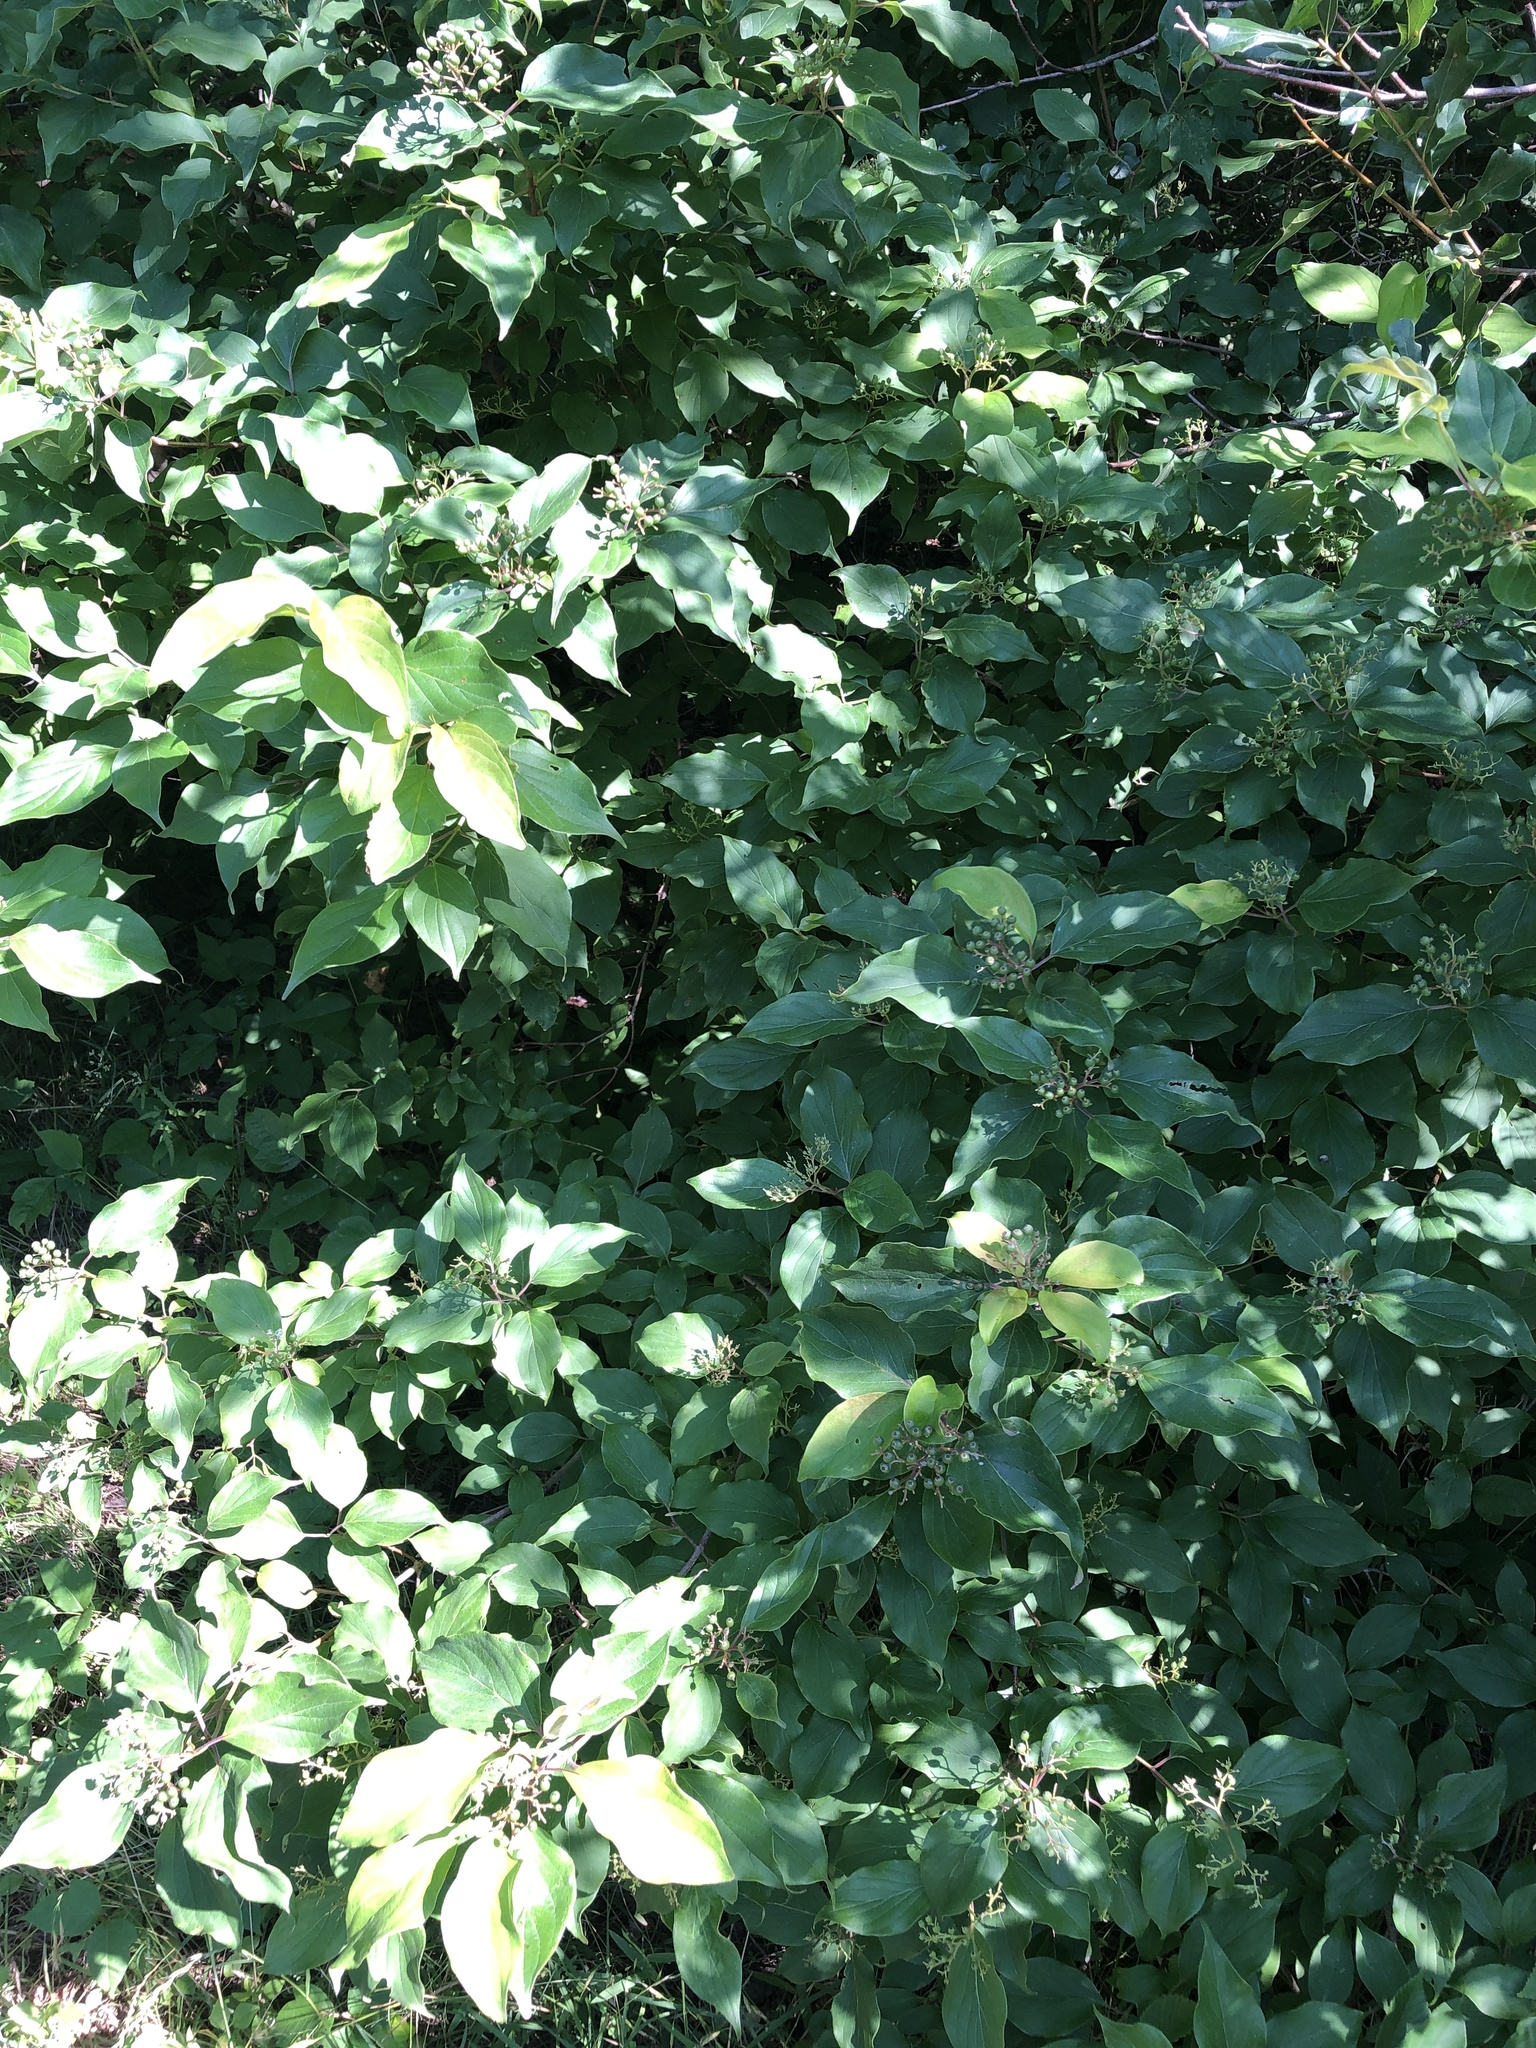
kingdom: Plantae
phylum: Tracheophyta
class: Magnoliopsida
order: Cornales
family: Cornaceae
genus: Cornus
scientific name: Cornus drummondii
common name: Rough-leaf dogwood
